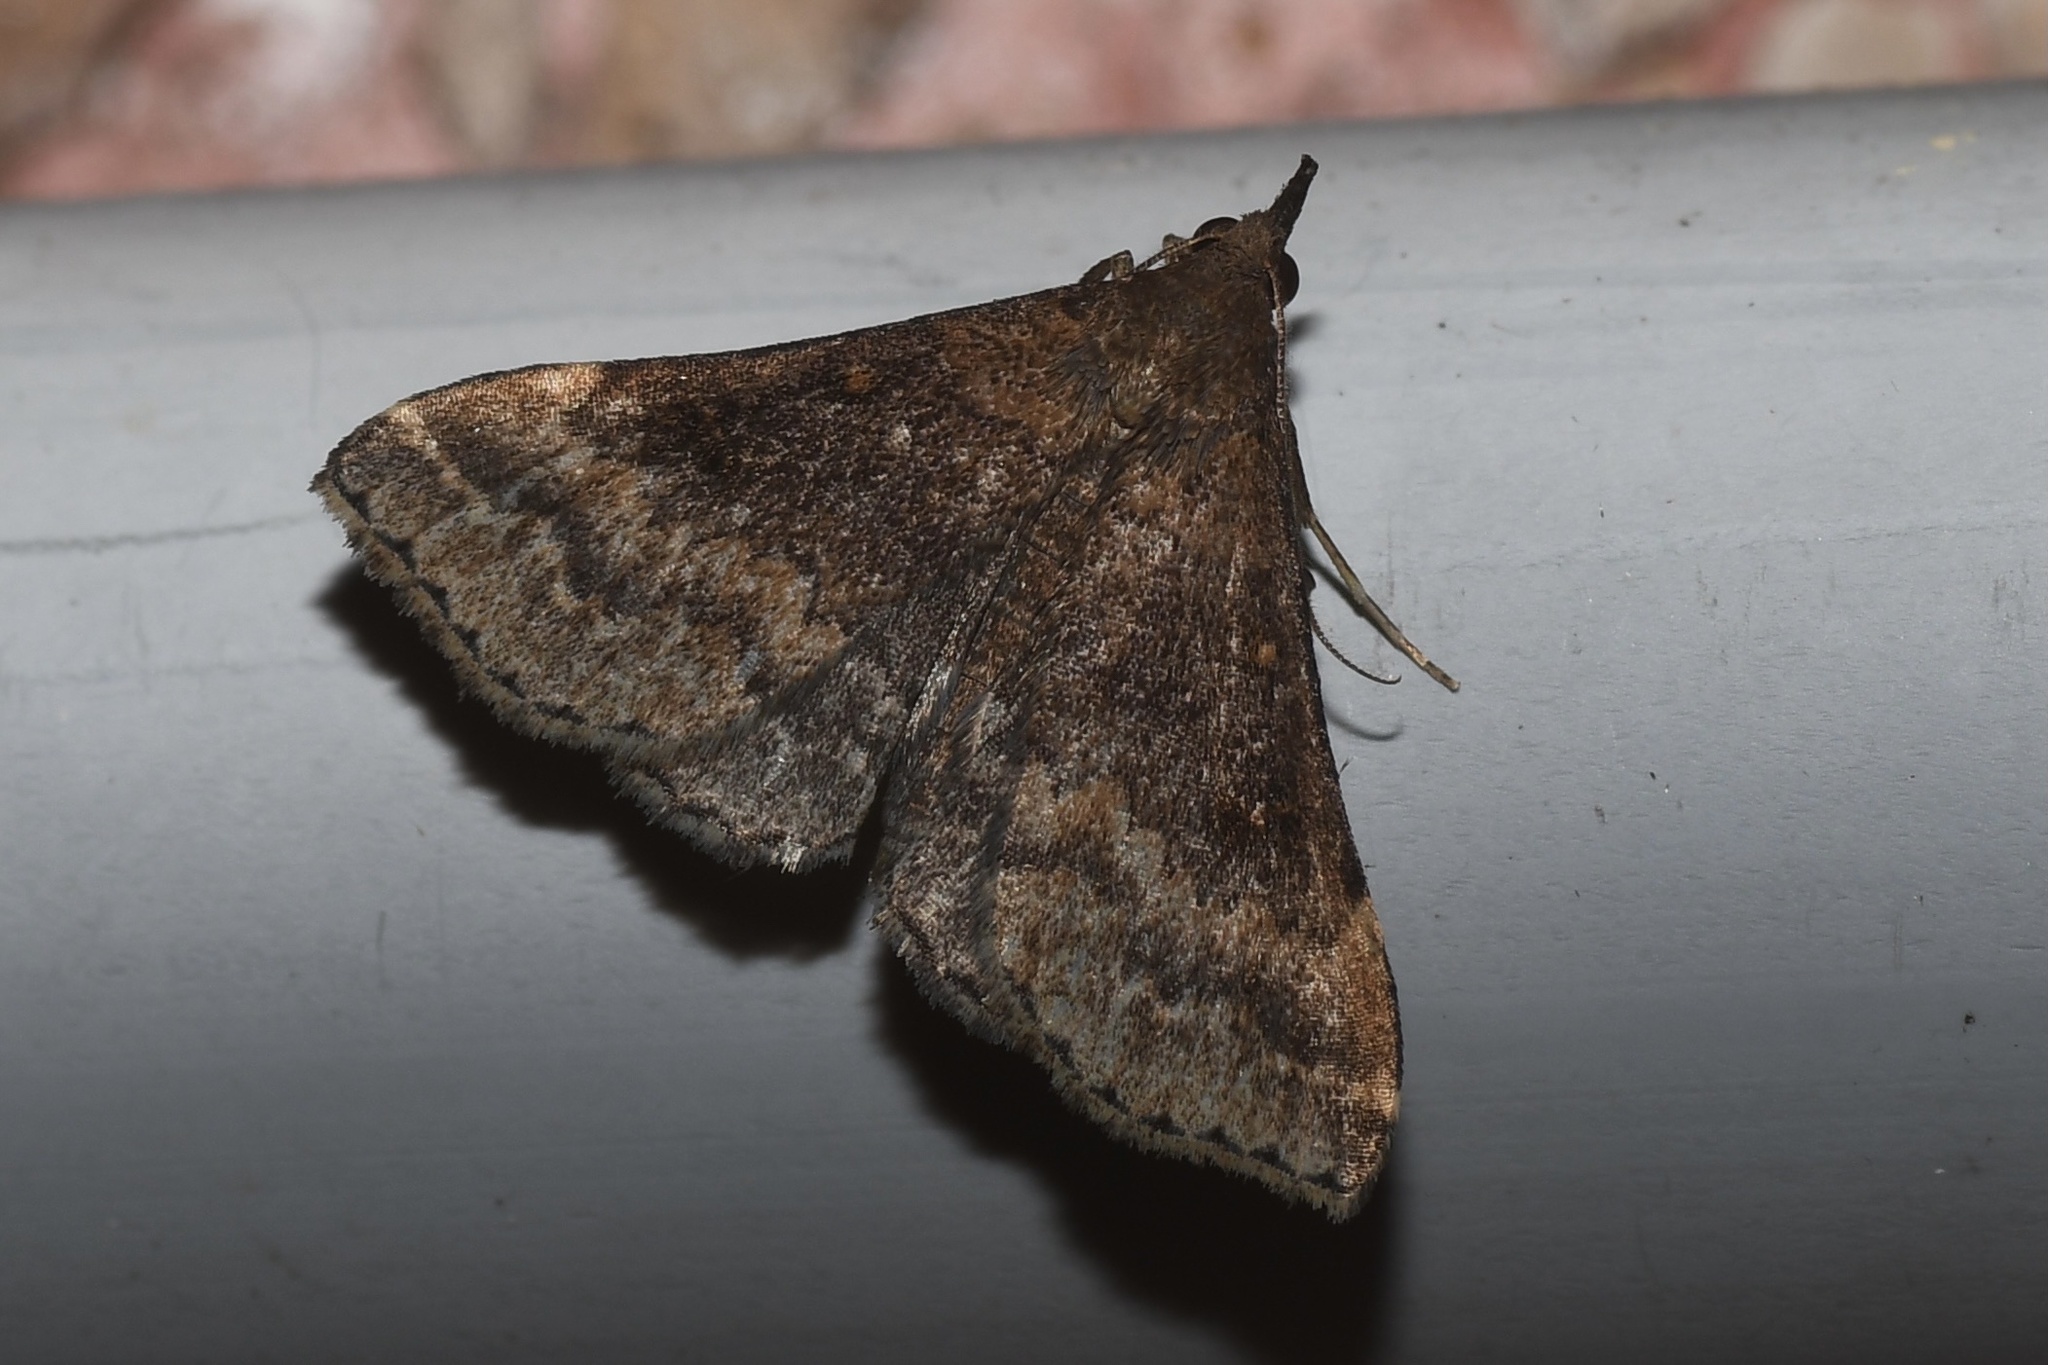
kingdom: Animalia
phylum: Arthropoda
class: Insecta
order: Lepidoptera
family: Erebidae
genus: Renia
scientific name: Renia factiosalis
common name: Sociable renia moth
